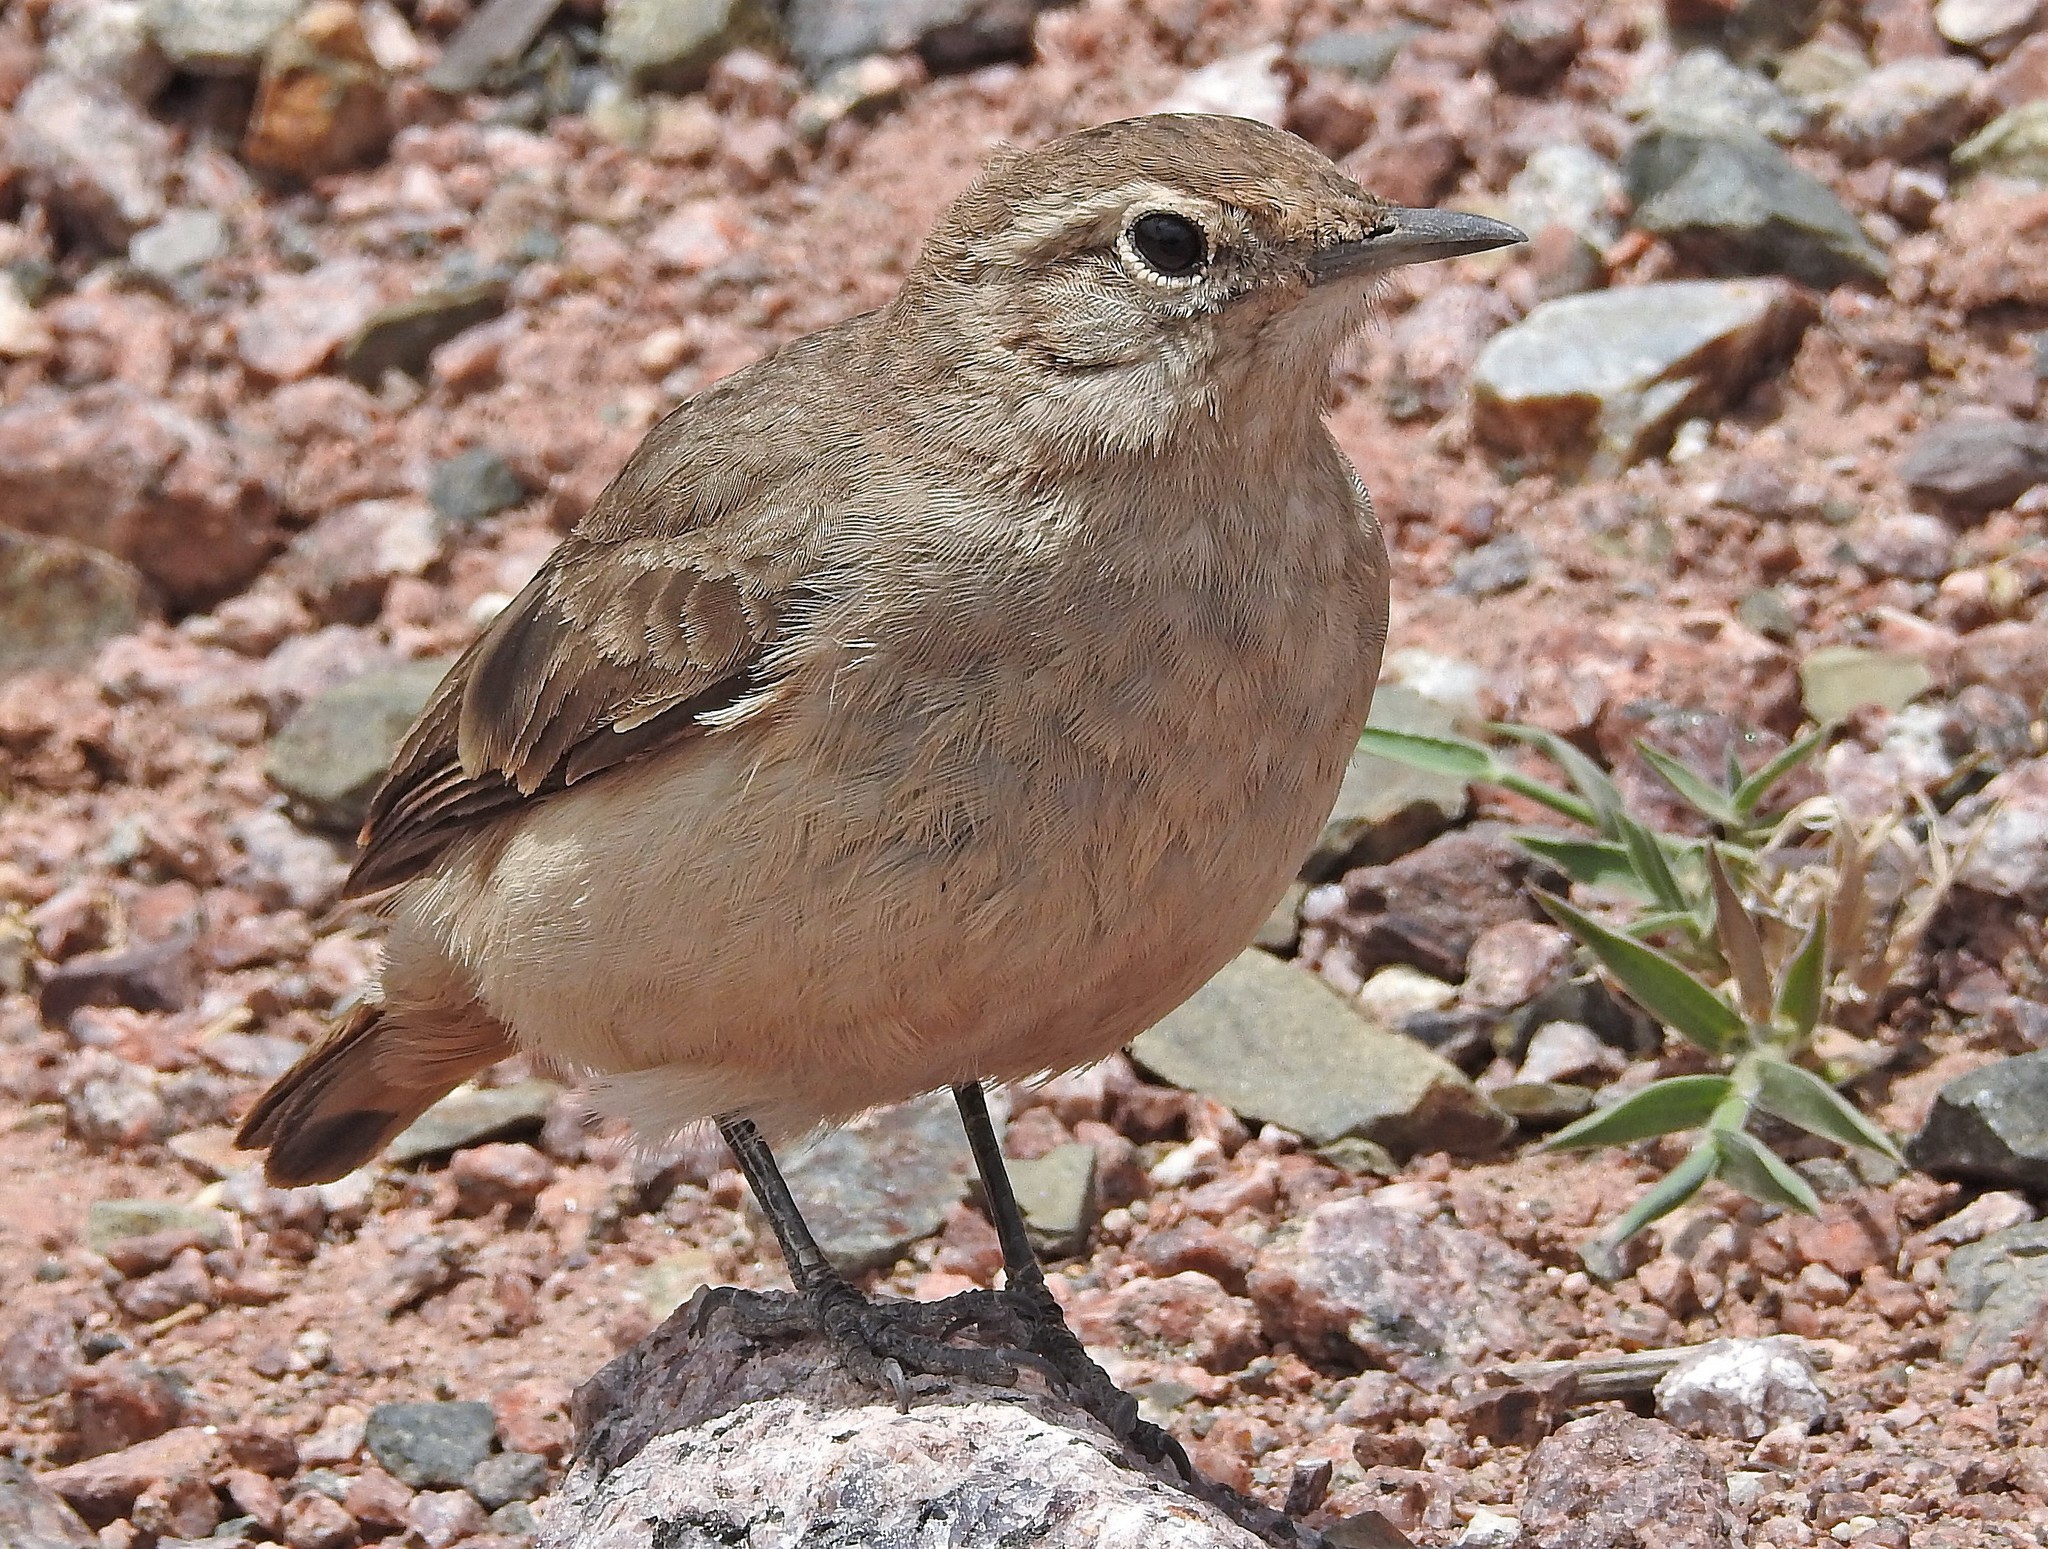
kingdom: Animalia
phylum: Chordata
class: Aves
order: Passeriformes
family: Furnariidae
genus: Geositta
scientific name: Geositta rufipennis
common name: Rufous-banded miner
